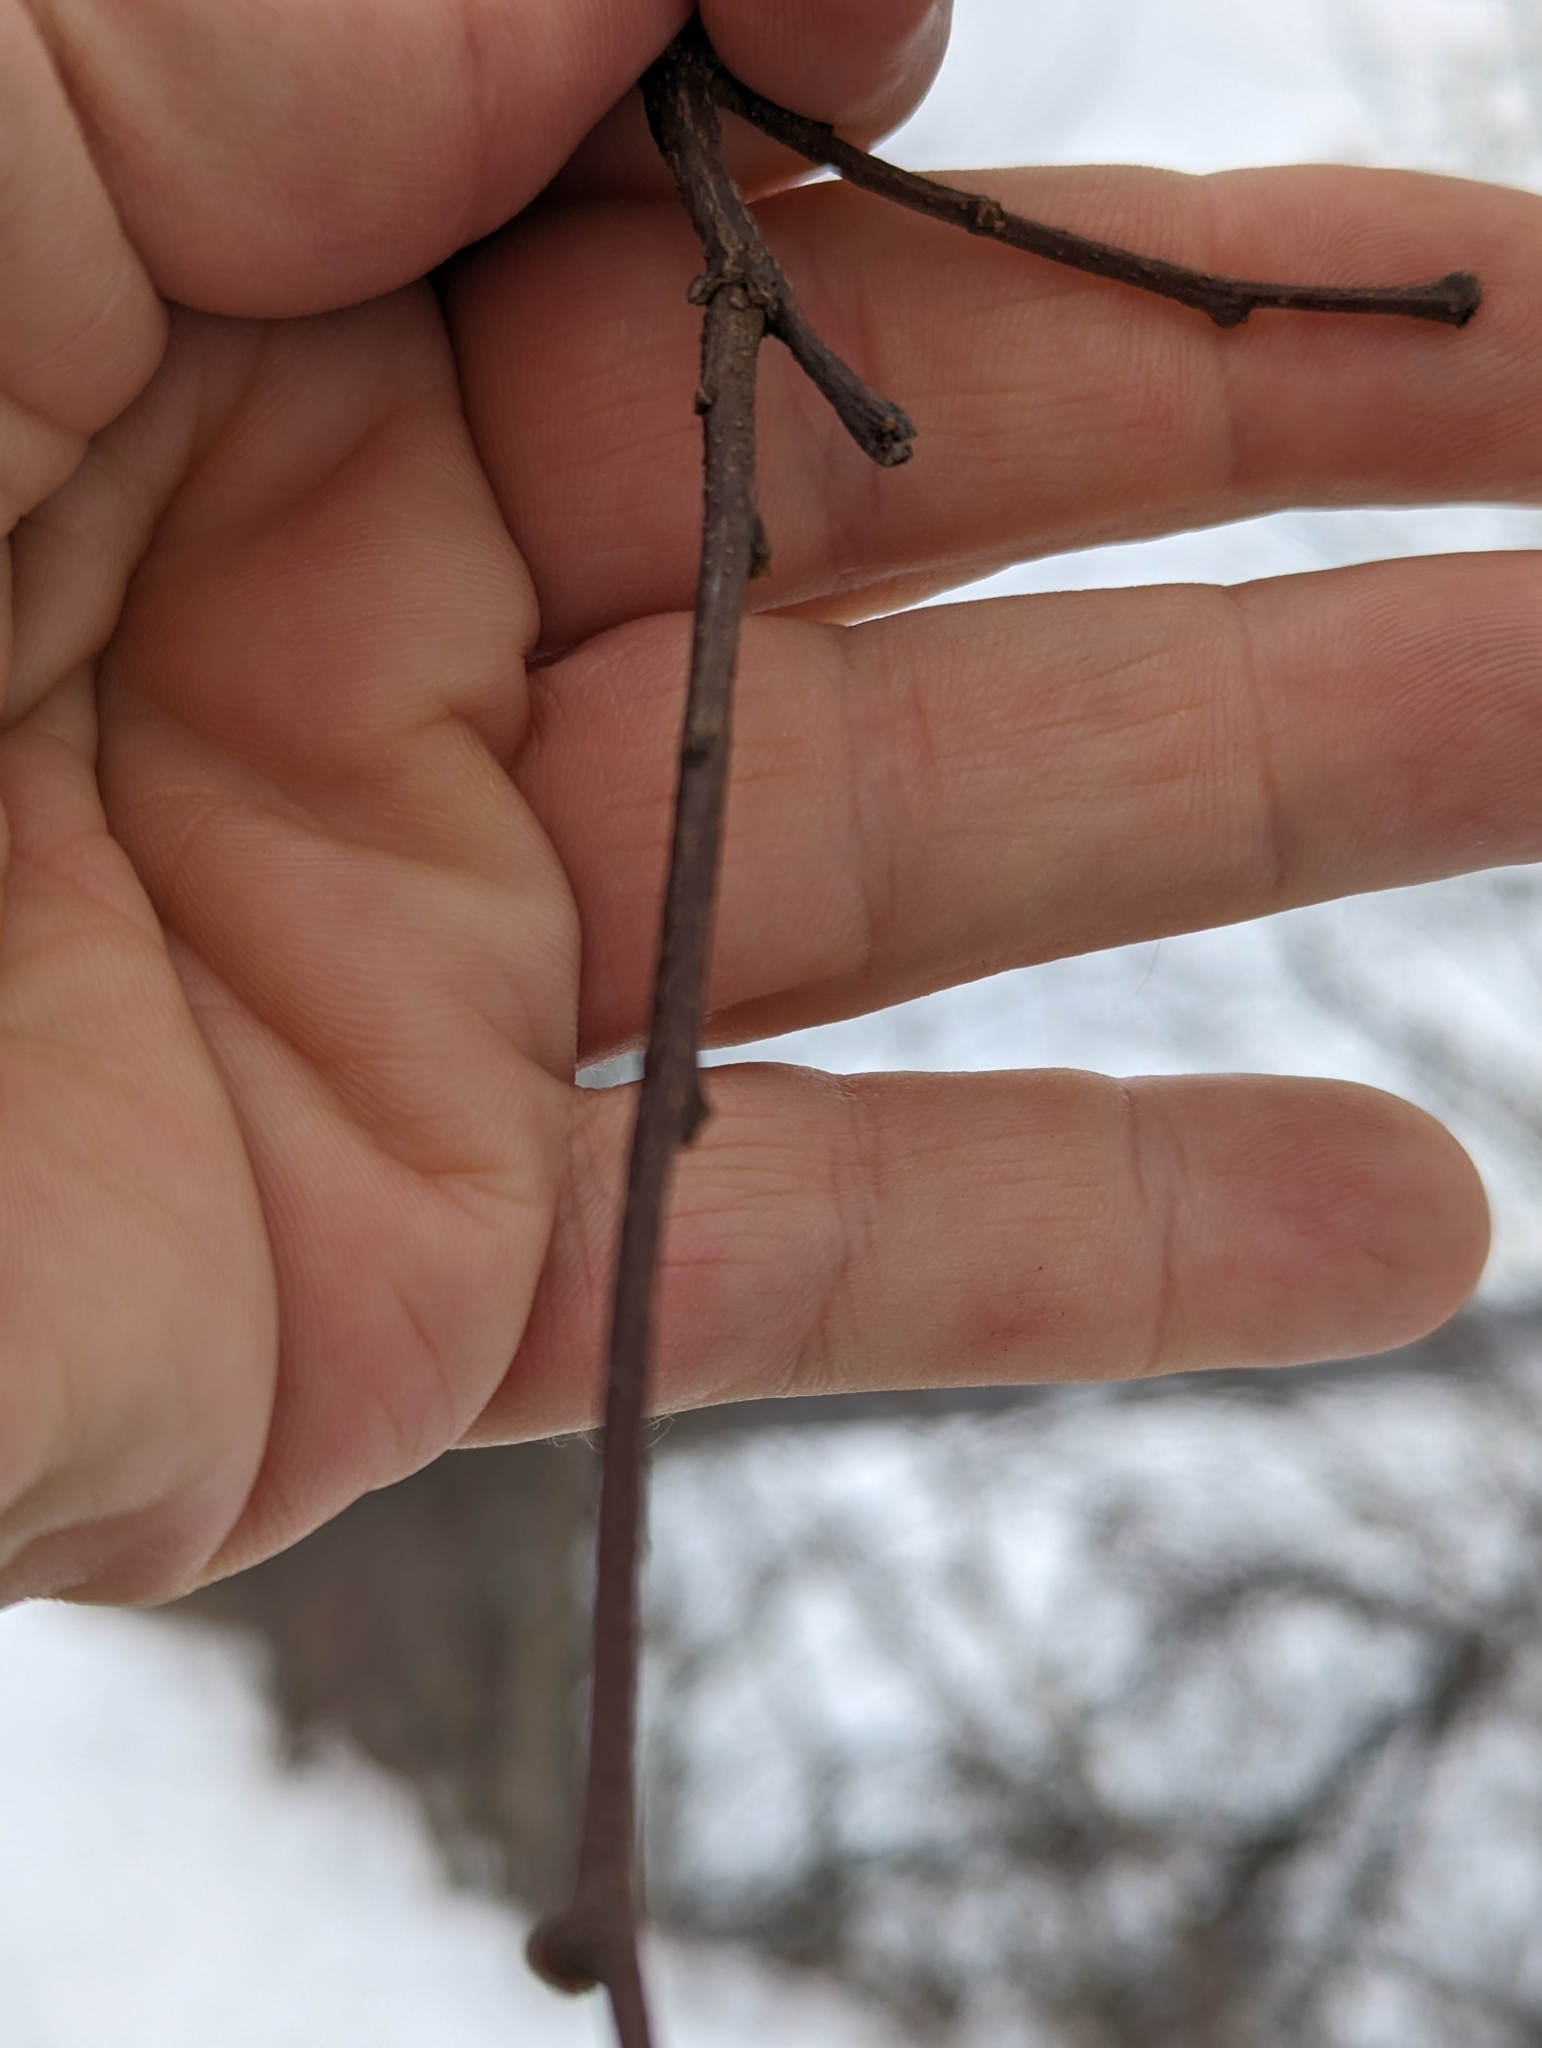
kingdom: Plantae
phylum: Tracheophyta
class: Magnoliopsida
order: Fabales
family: Fabaceae
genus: Robinia
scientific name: Robinia pseudoacacia
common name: Black locust
